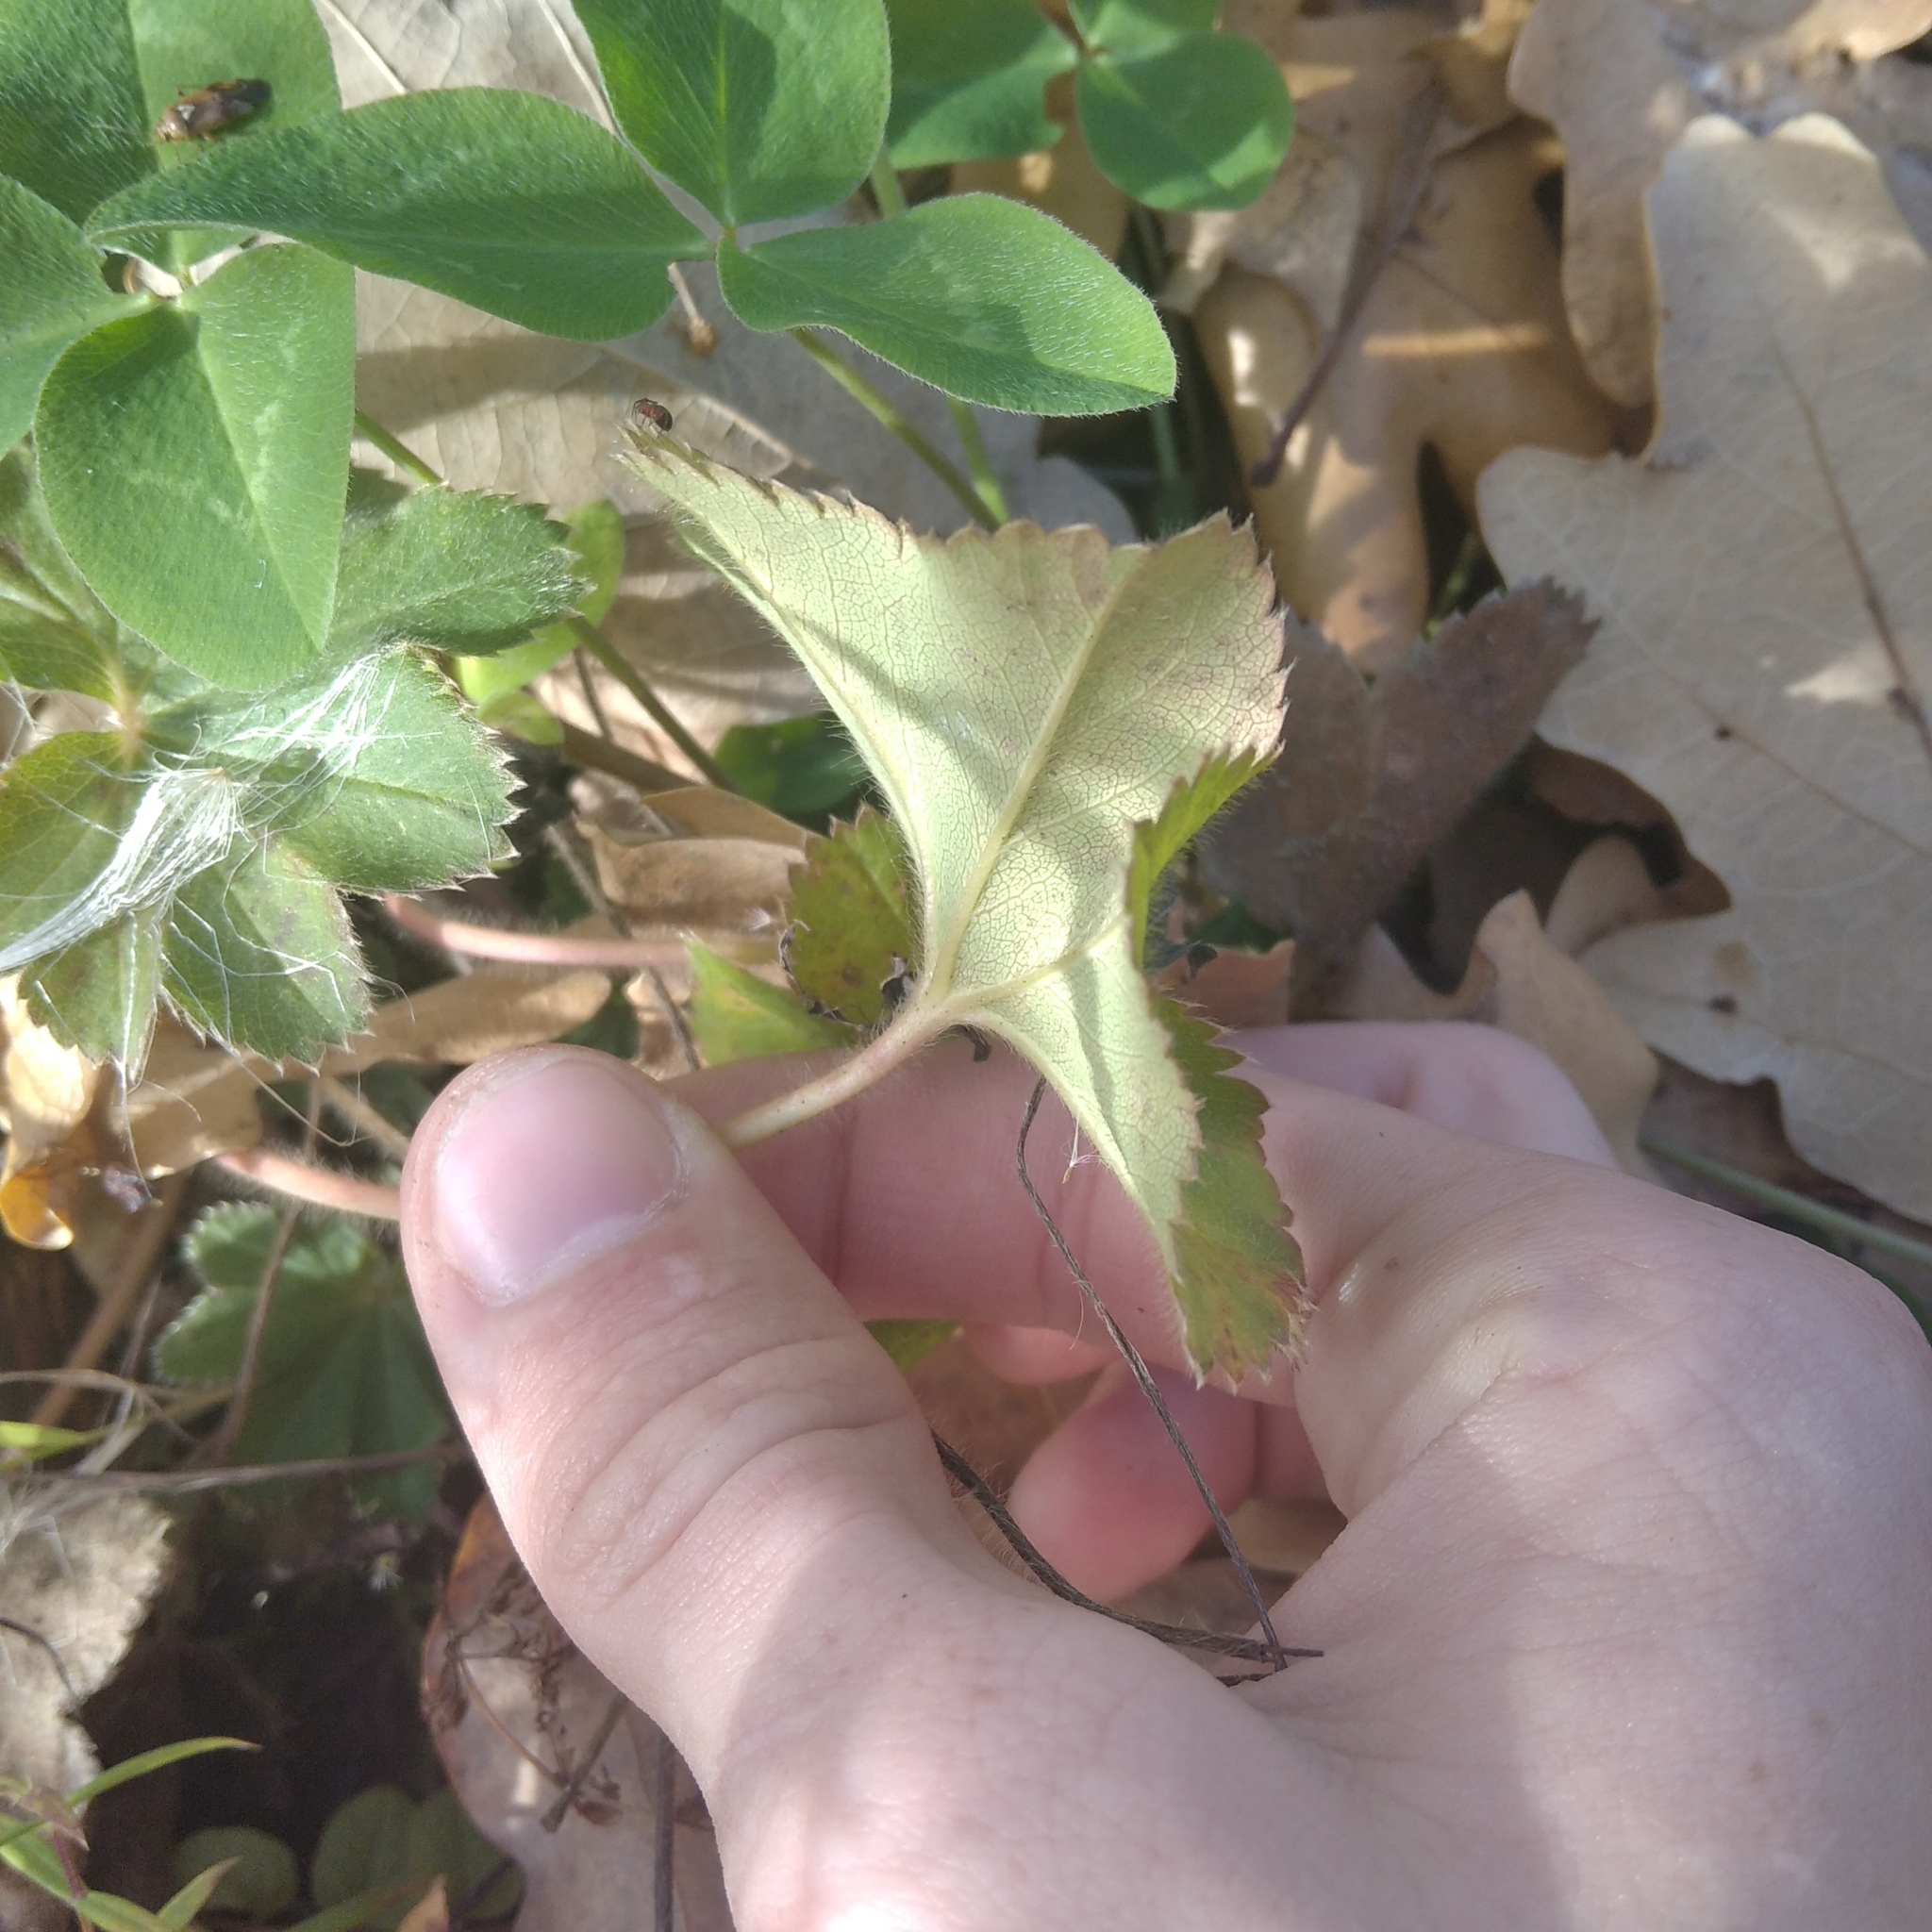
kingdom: Plantae
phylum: Tracheophyta
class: Magnoliopsida
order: Rosales
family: Rosaceae
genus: Alchemilla
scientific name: Alchemilla
